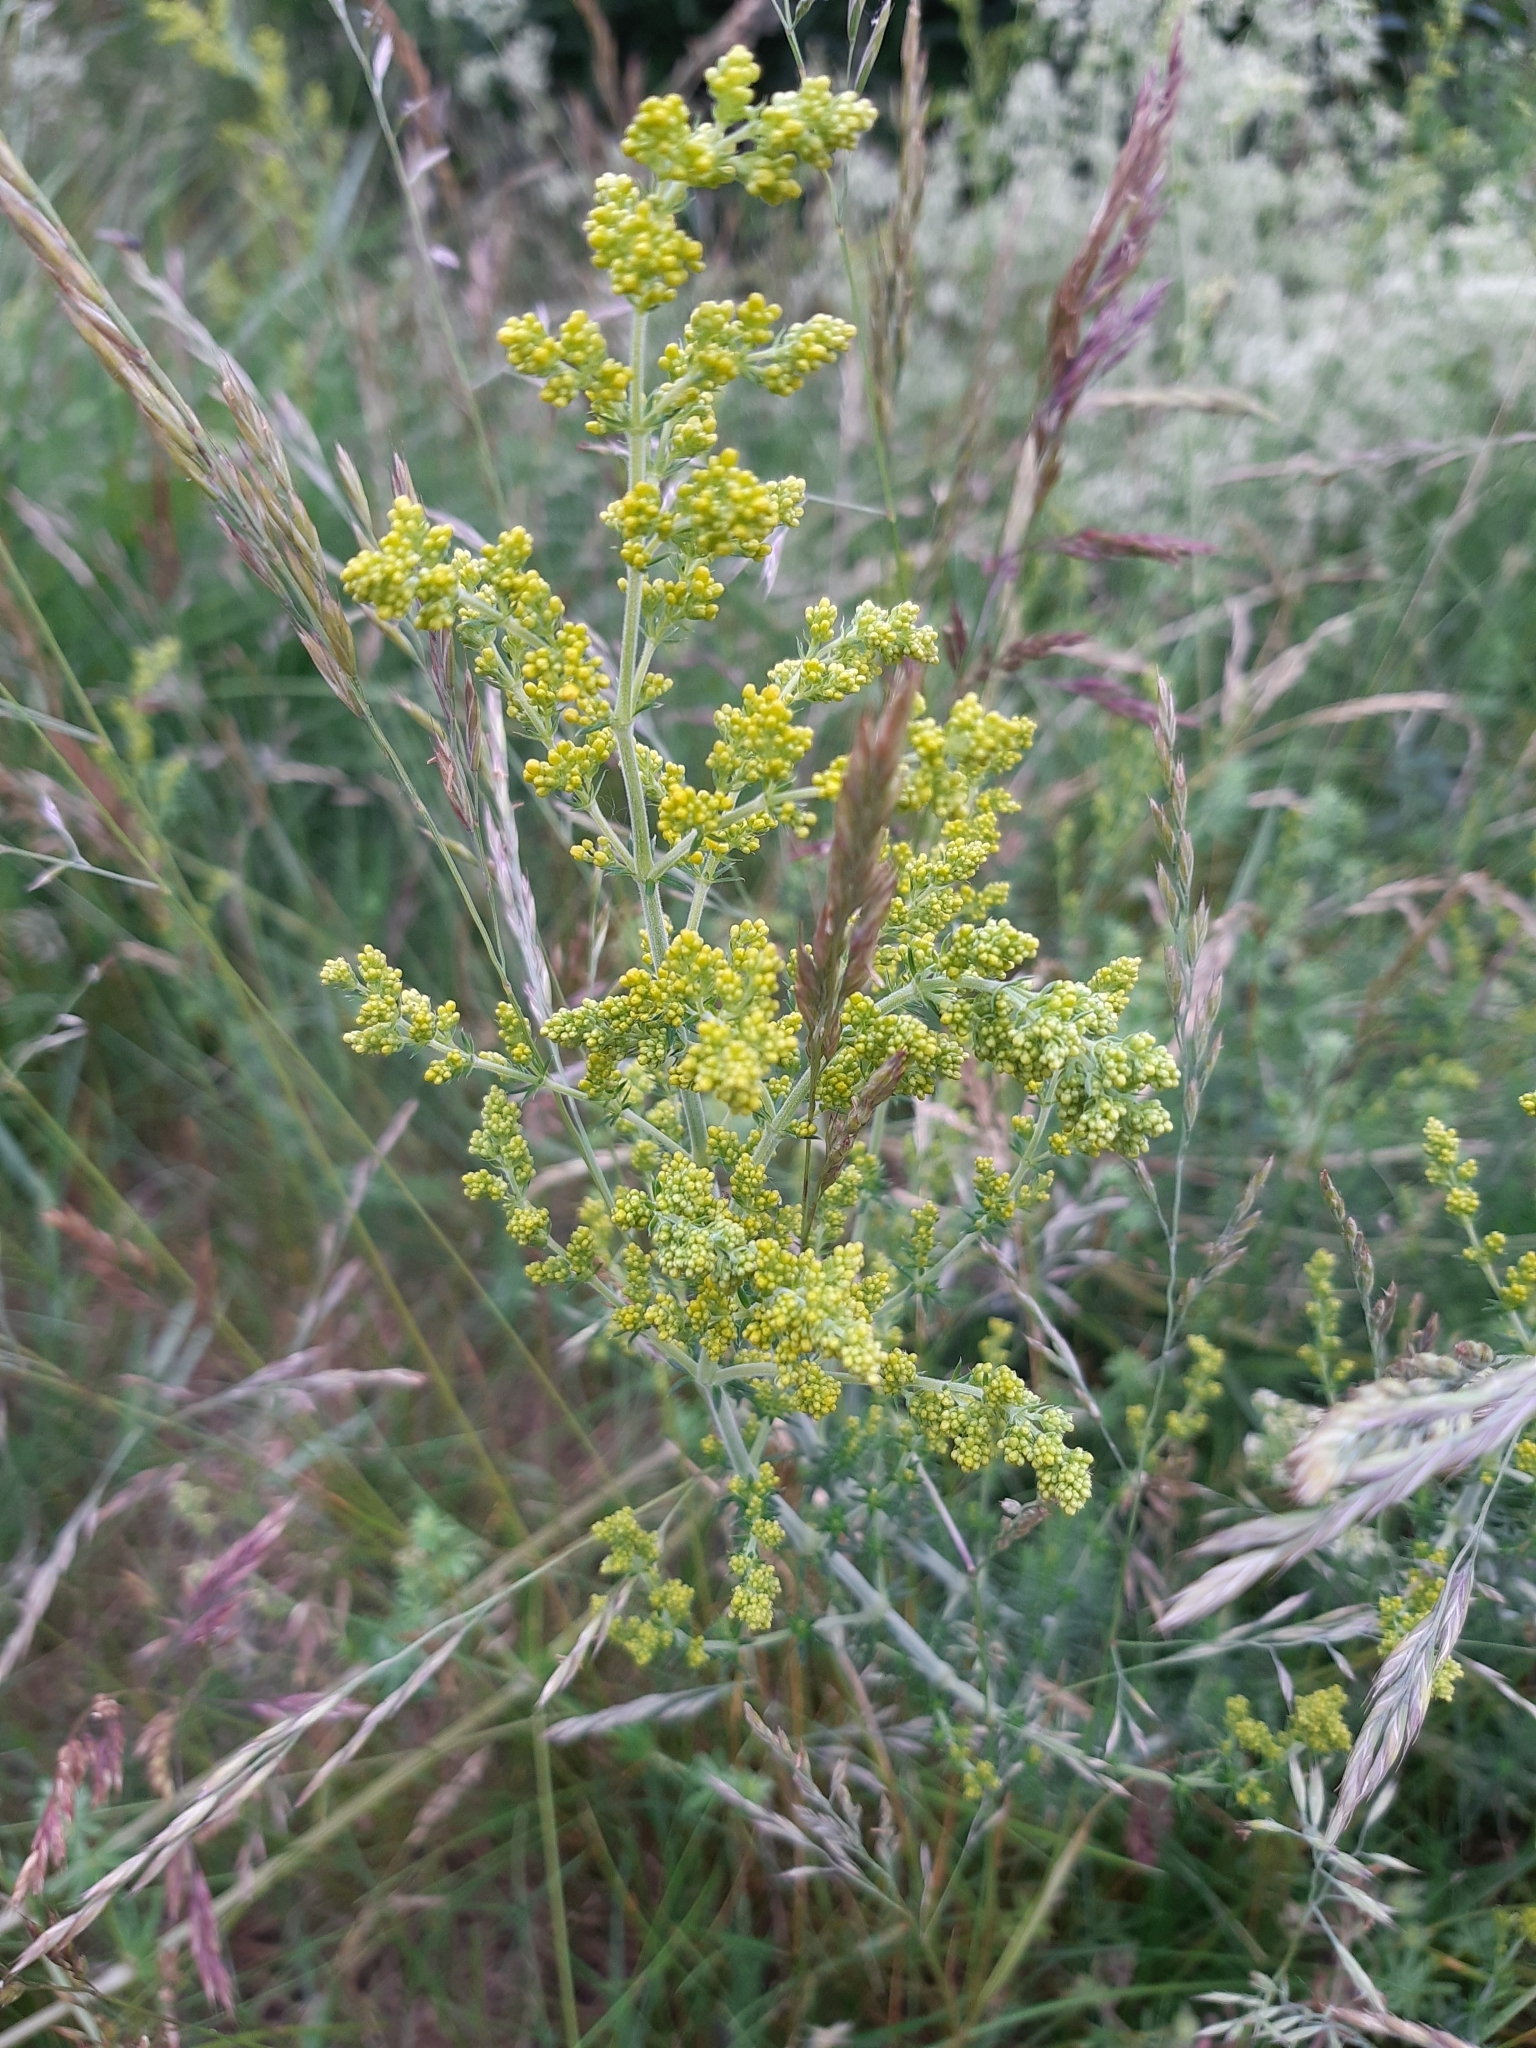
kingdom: Plantae
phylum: Tracheophyta
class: Magnoliopsida
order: Gentianales
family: Rubiaceae
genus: Galium
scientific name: Galium verum
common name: Lady's bedstraw
